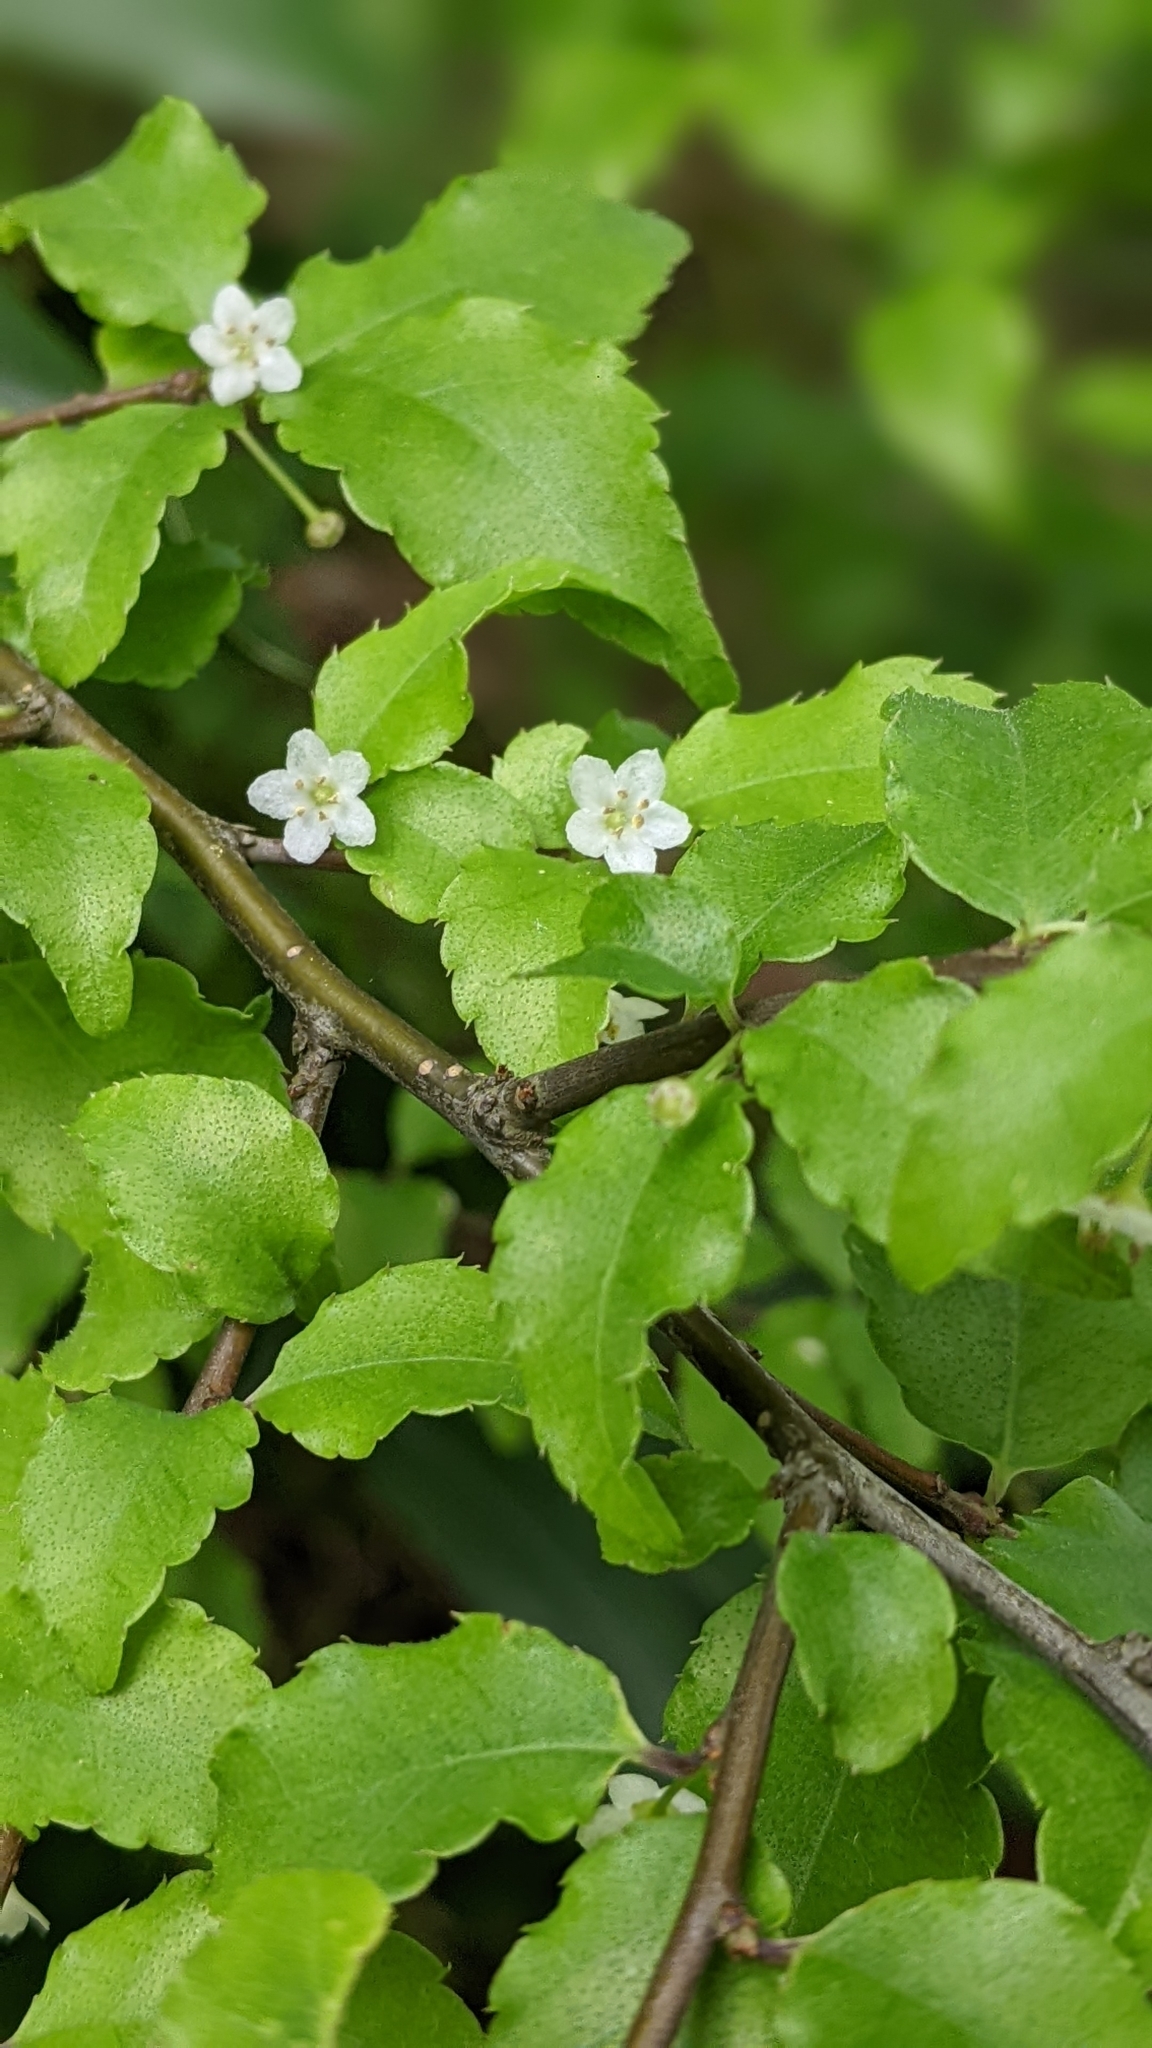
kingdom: Plantae
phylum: Tracheophyta
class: Magnoliopsida
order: Aquifoliales
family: Aquifoliaceae
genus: Ilex
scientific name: Ilex asprella
